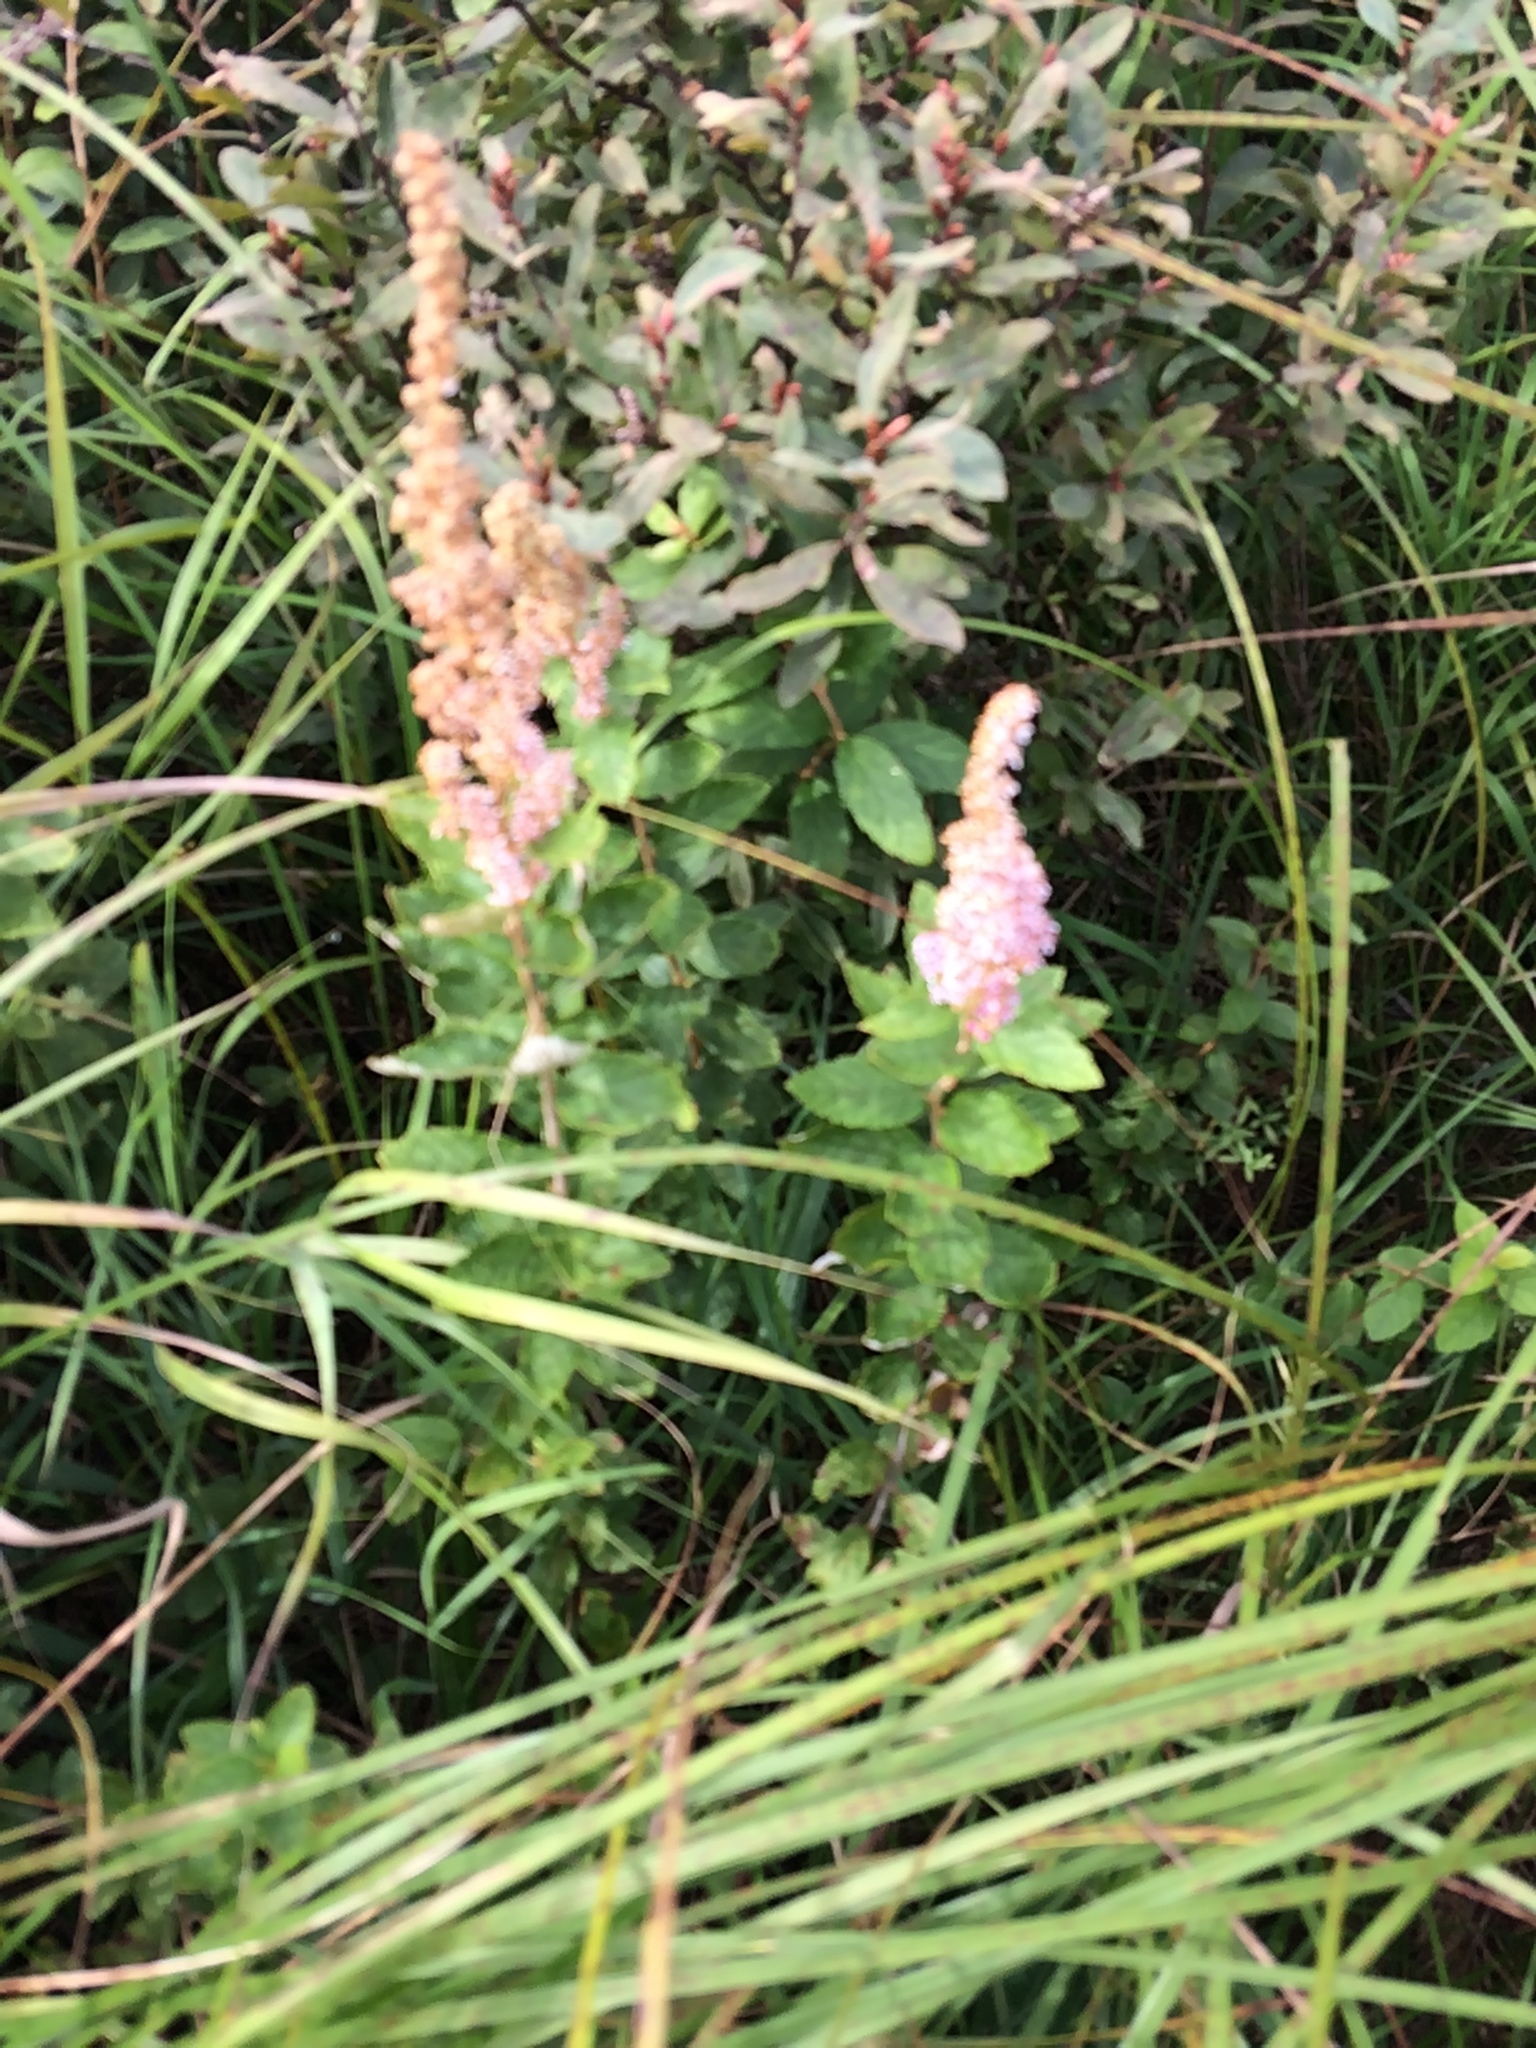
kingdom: Plantae
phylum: Tracheophyta
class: Magnoliopsida
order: Rosales
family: Rosaceae
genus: Spiraea
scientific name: Spiraea tomentosa
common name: Hardhack
